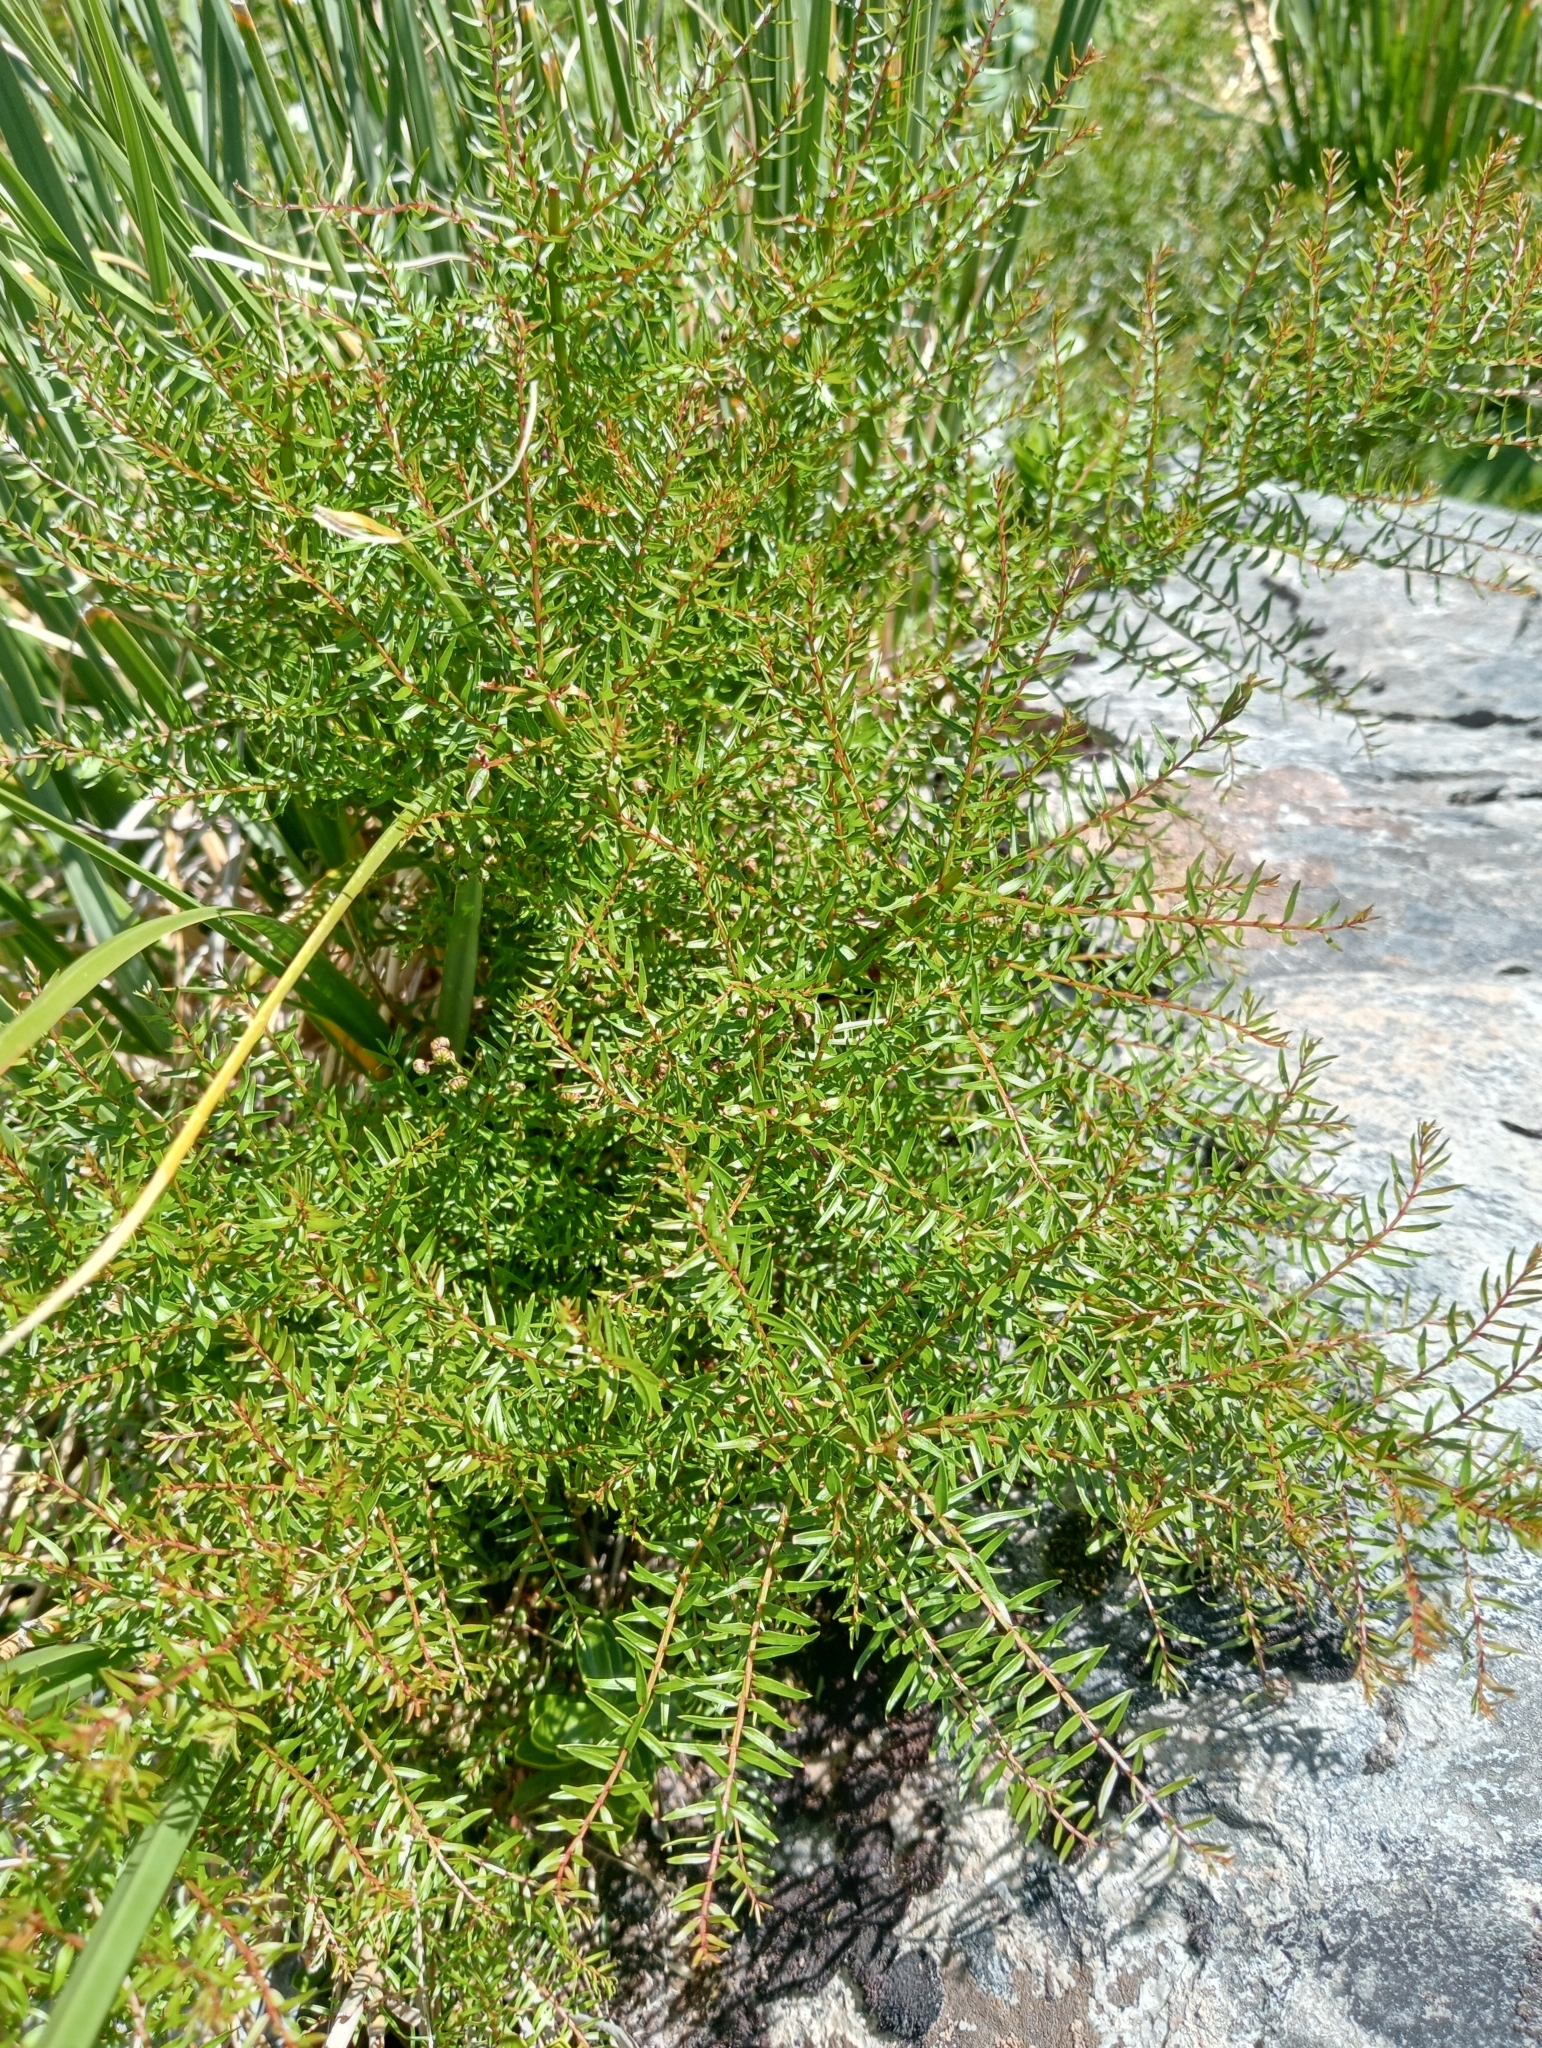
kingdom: Plantae
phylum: Tracheophyta
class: Magnoliopsida
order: Cucurbitales
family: Coriariaceae
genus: Coriaria
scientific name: Coriaria plumosa
